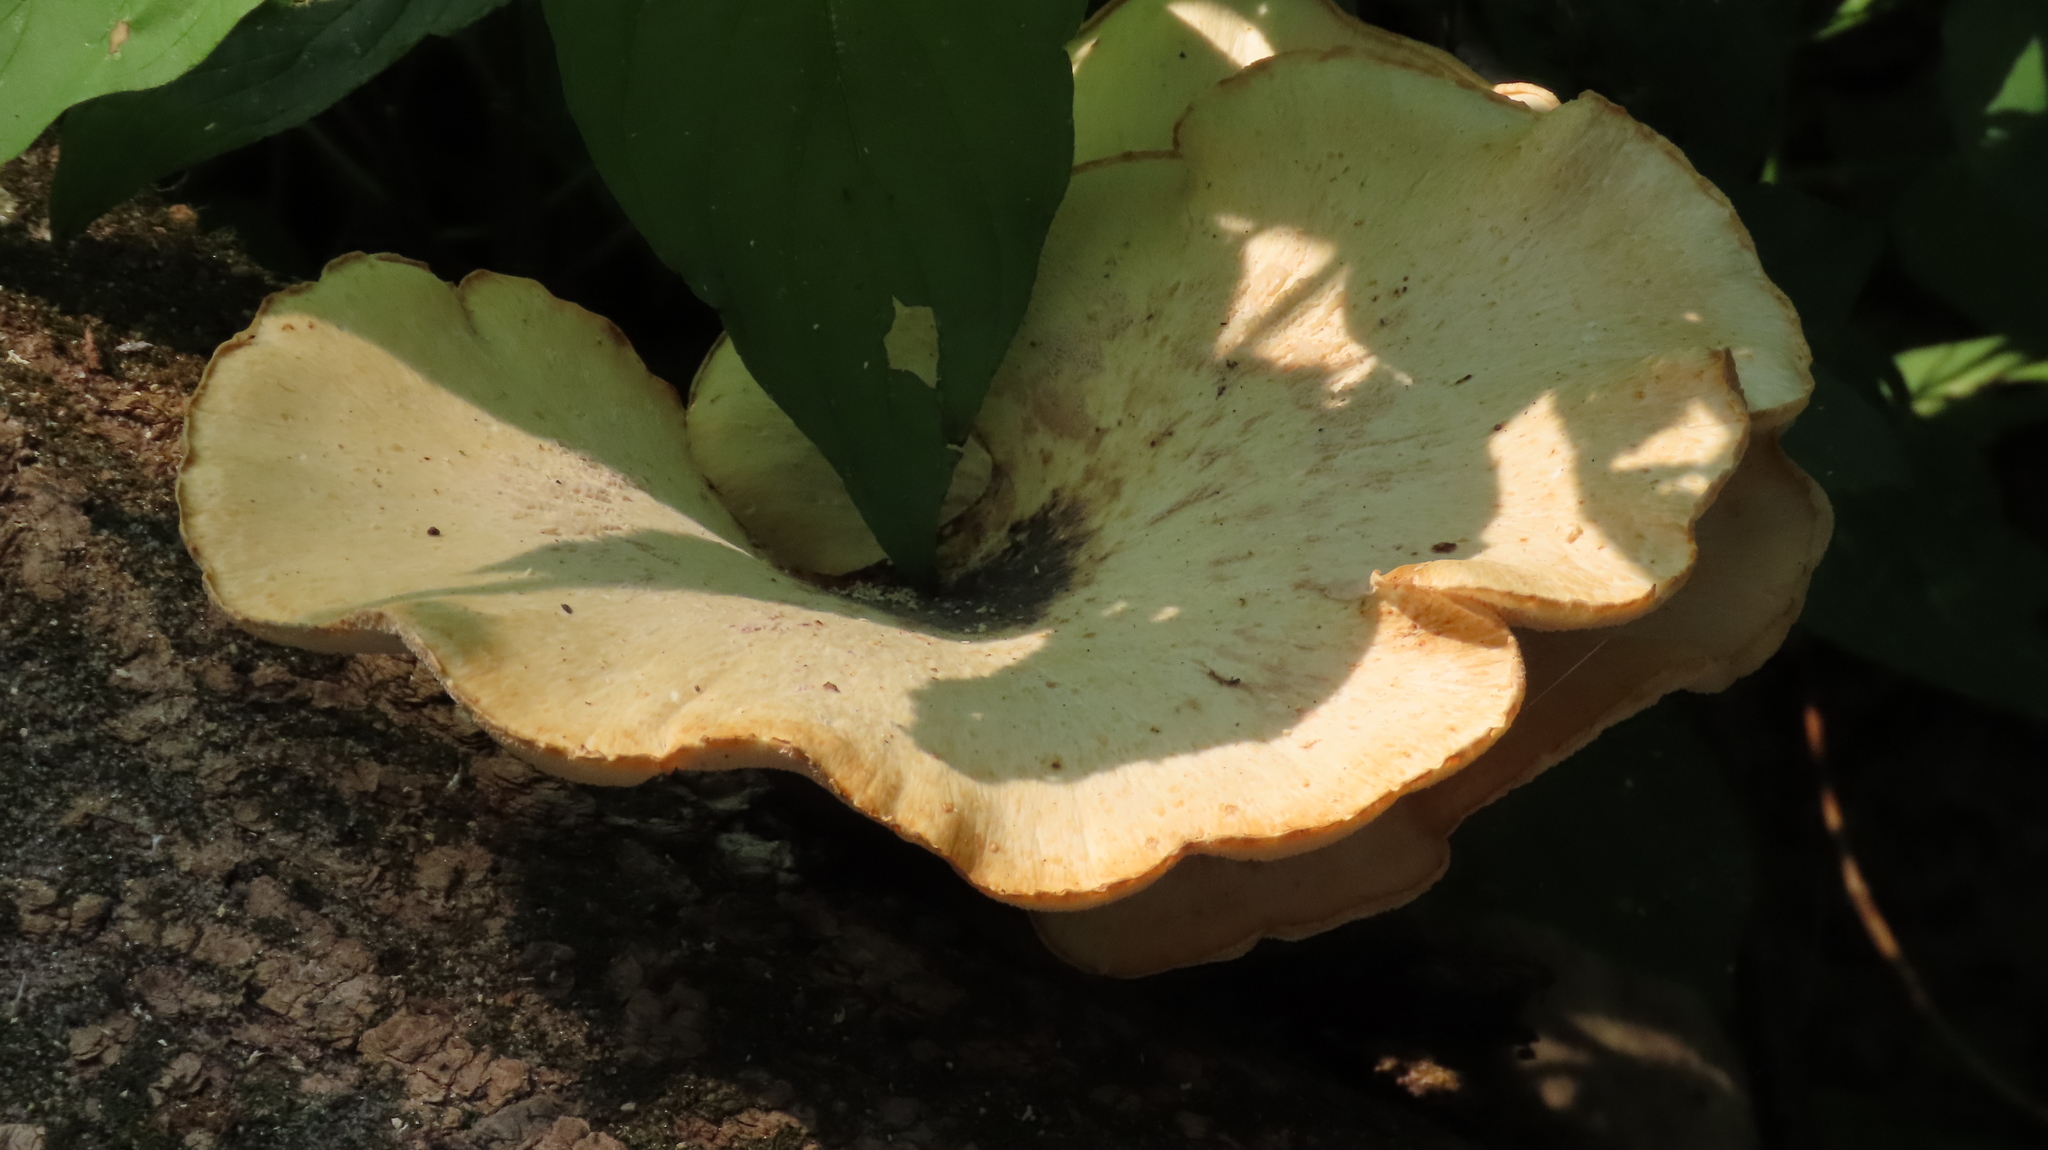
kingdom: Fungi
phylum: Basidiomycota
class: Agaricomycetes
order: Polyporales
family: Polyporaceae
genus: Cerioporus
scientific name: Cerioporus squamosus
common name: Dryad's saddle
